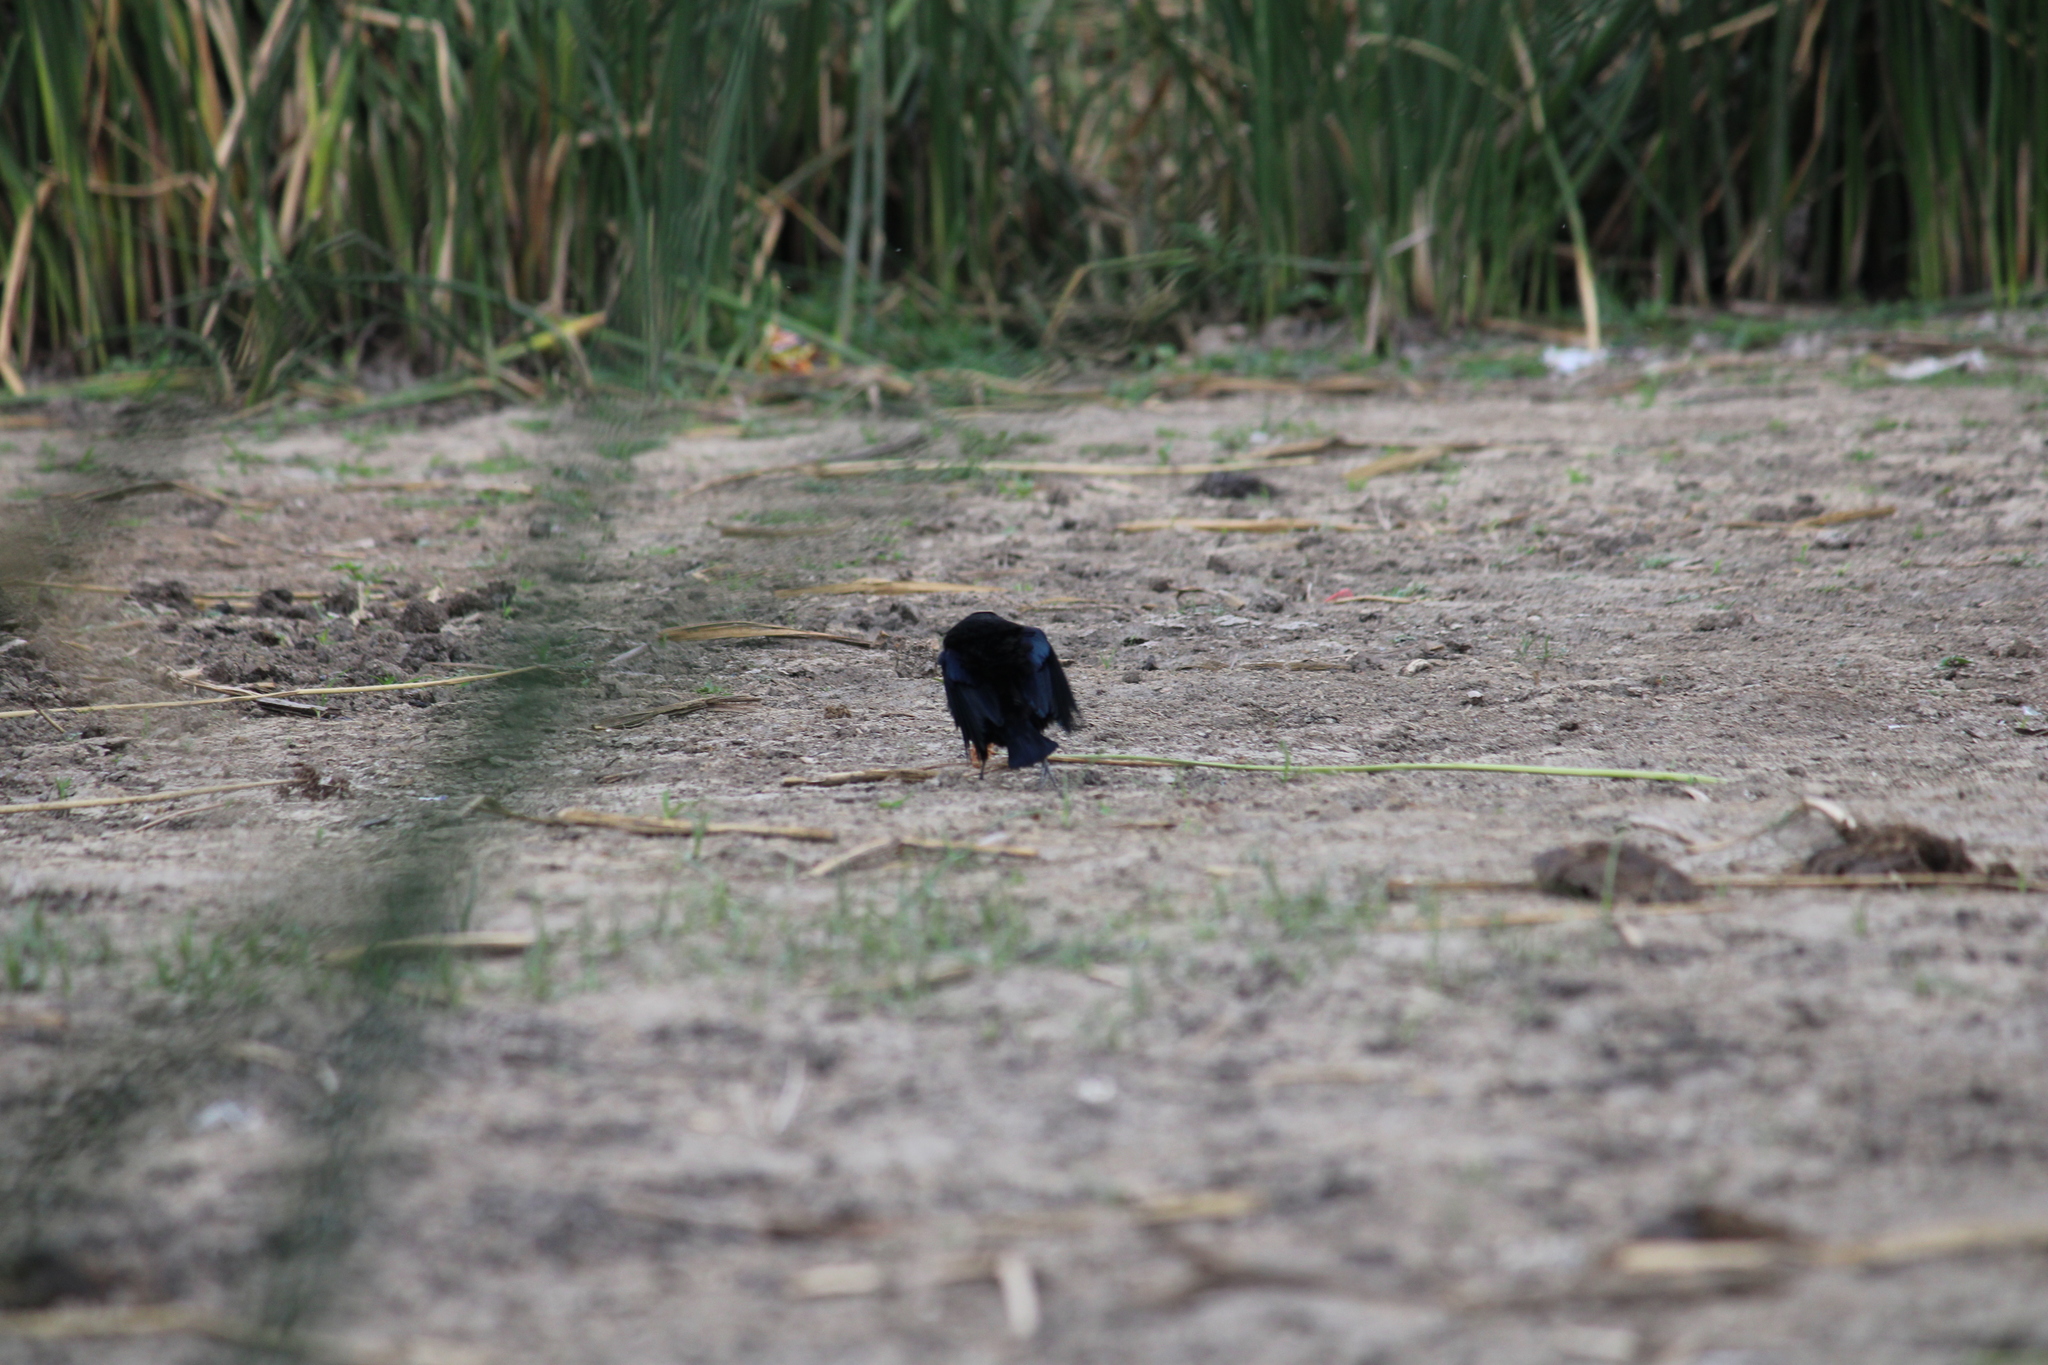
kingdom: Animalia
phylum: Chordata
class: Aves
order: Passeriformes
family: Icteridae
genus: Molothrus
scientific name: Molothrus aeneus
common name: Bronzed cowbird
